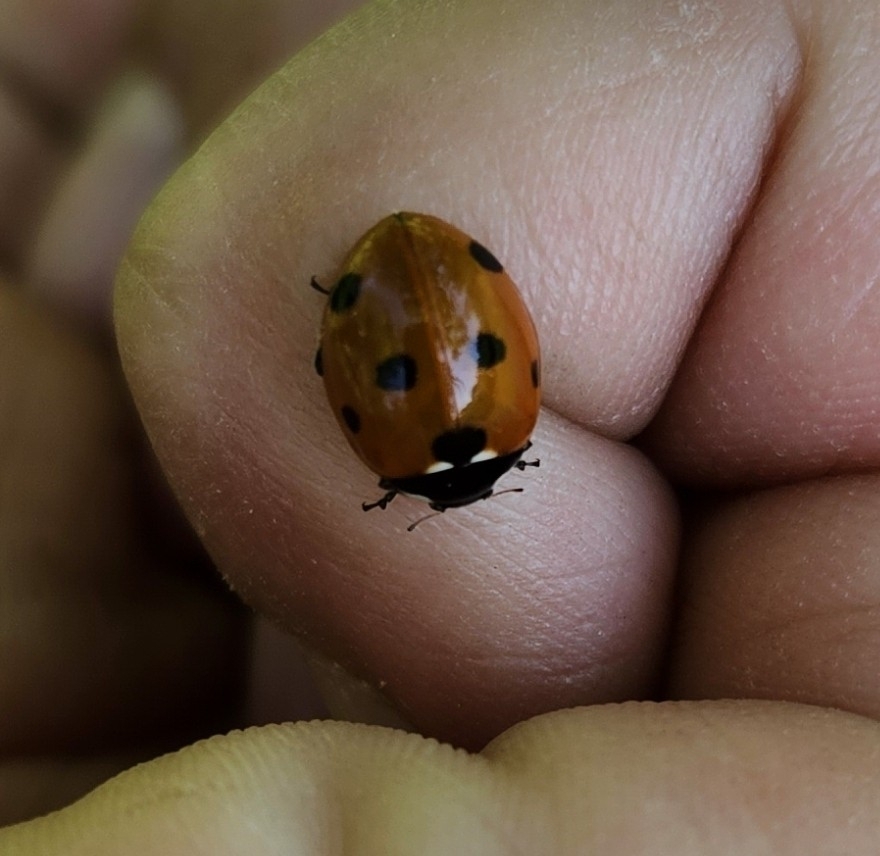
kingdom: Animalia
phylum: Arthropoda
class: Insecta
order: Coleoptera
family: Coccinellidae
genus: Coccinella
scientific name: Coccinella septempunctata
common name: Sevenspotted lady beetle
